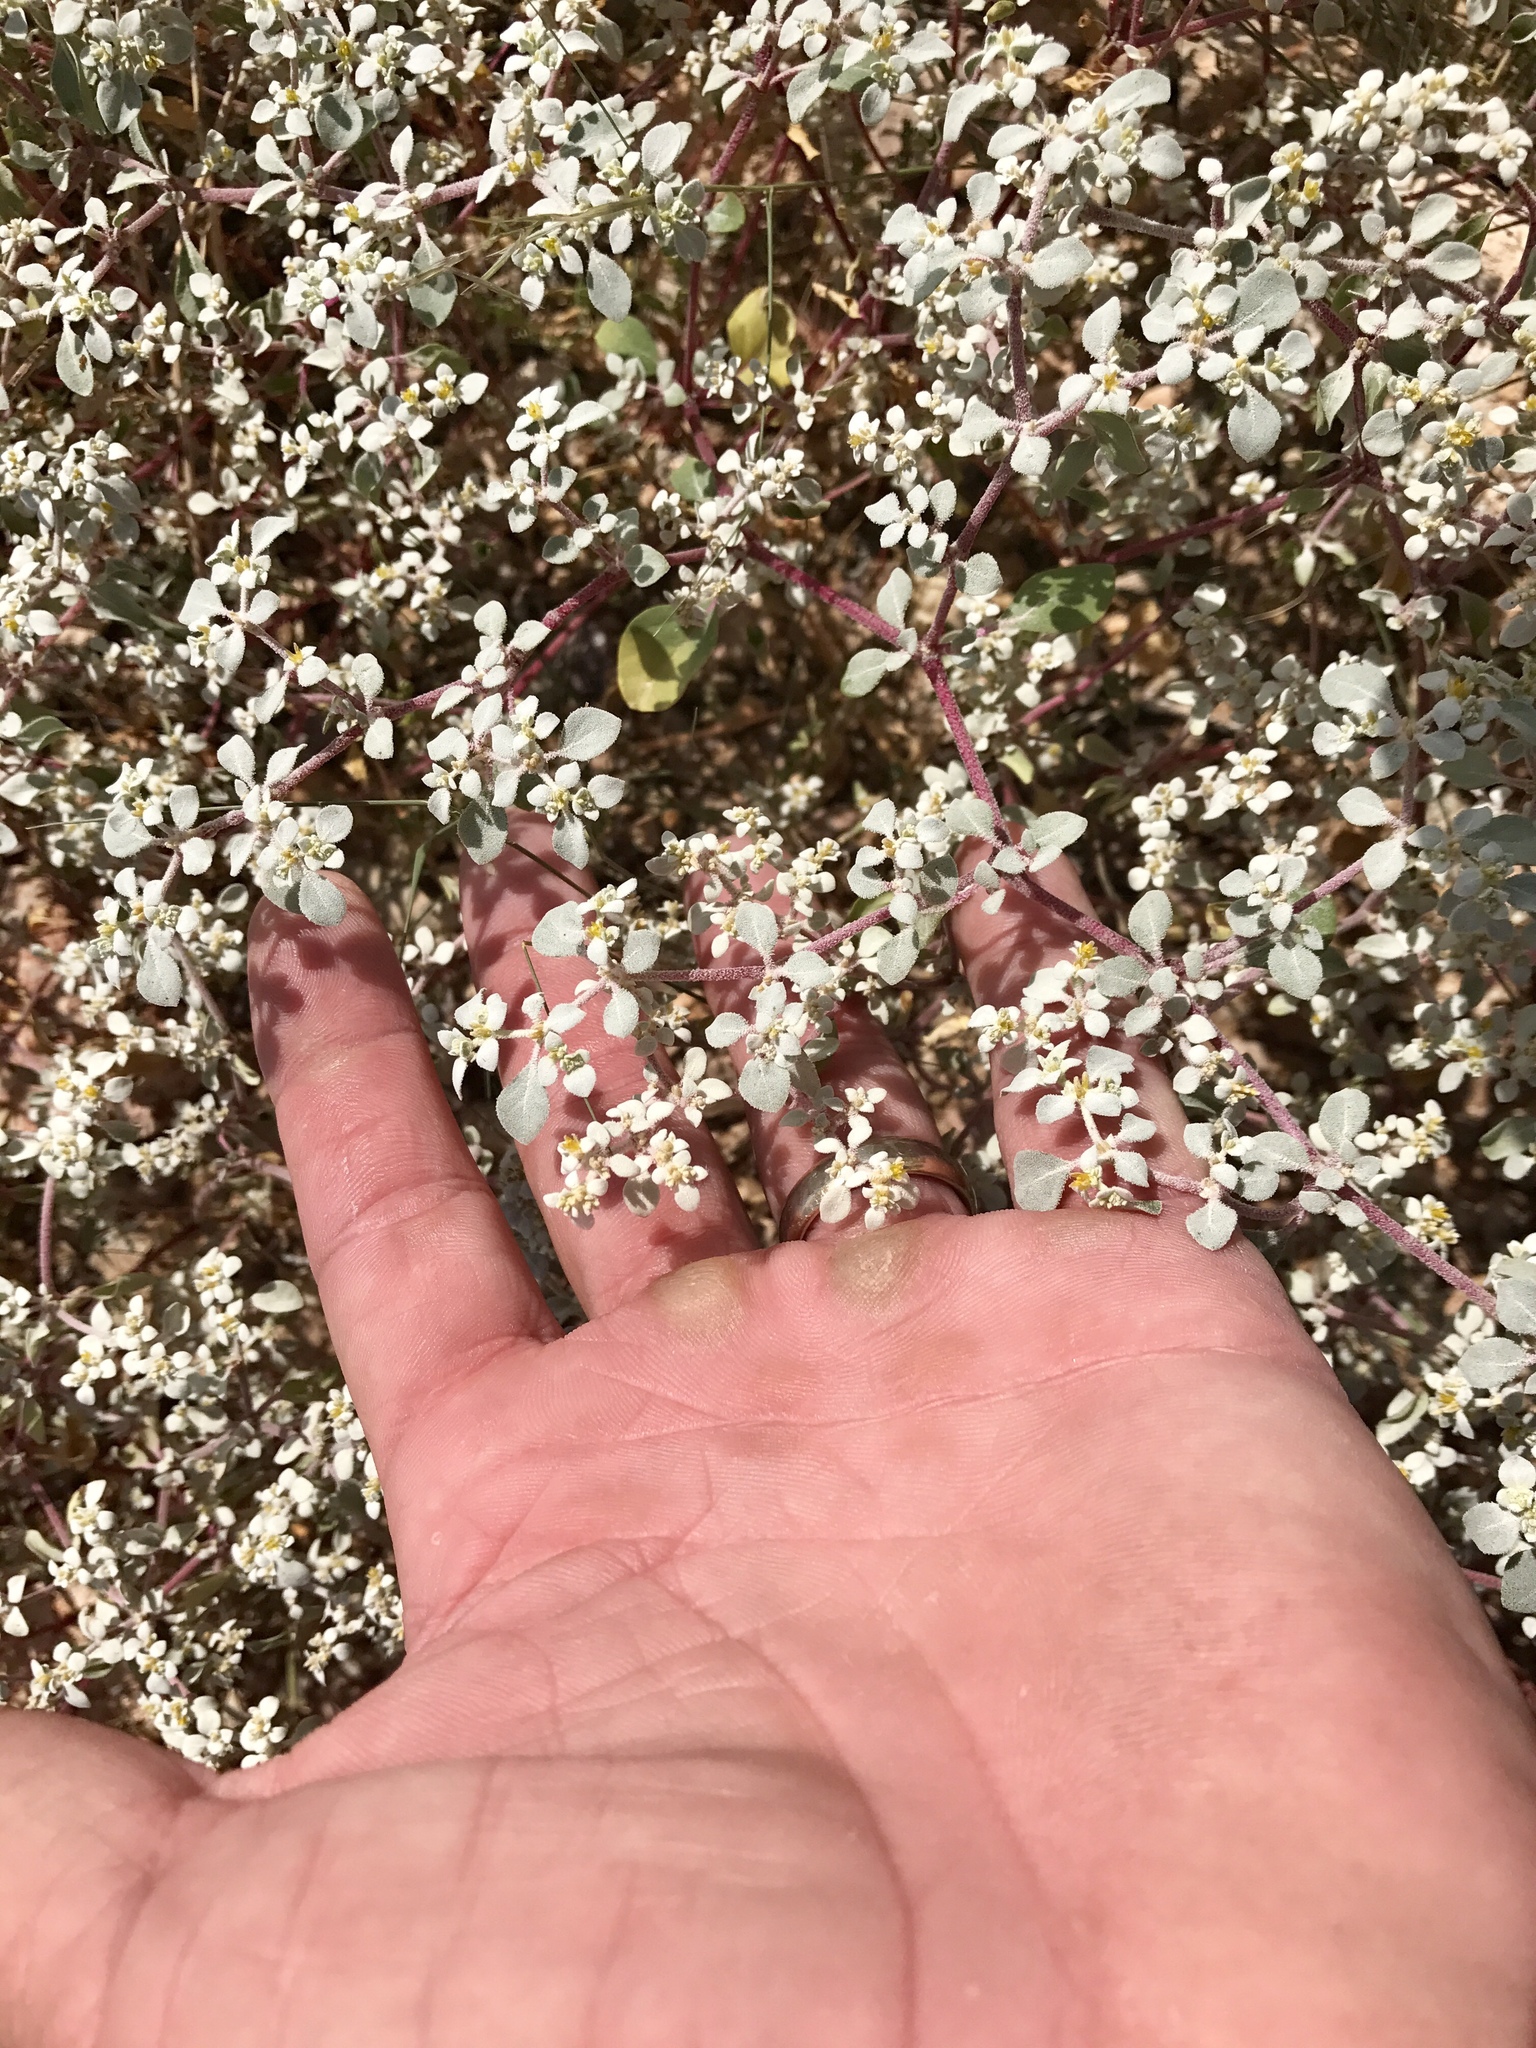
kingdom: Plantae
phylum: Tracheophyta
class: Magnoliopsida
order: Caryophyllales
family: Amaranthaceae
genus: Tidestromia
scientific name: Tidestromia lanuginosa
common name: Woolly tidestromia
